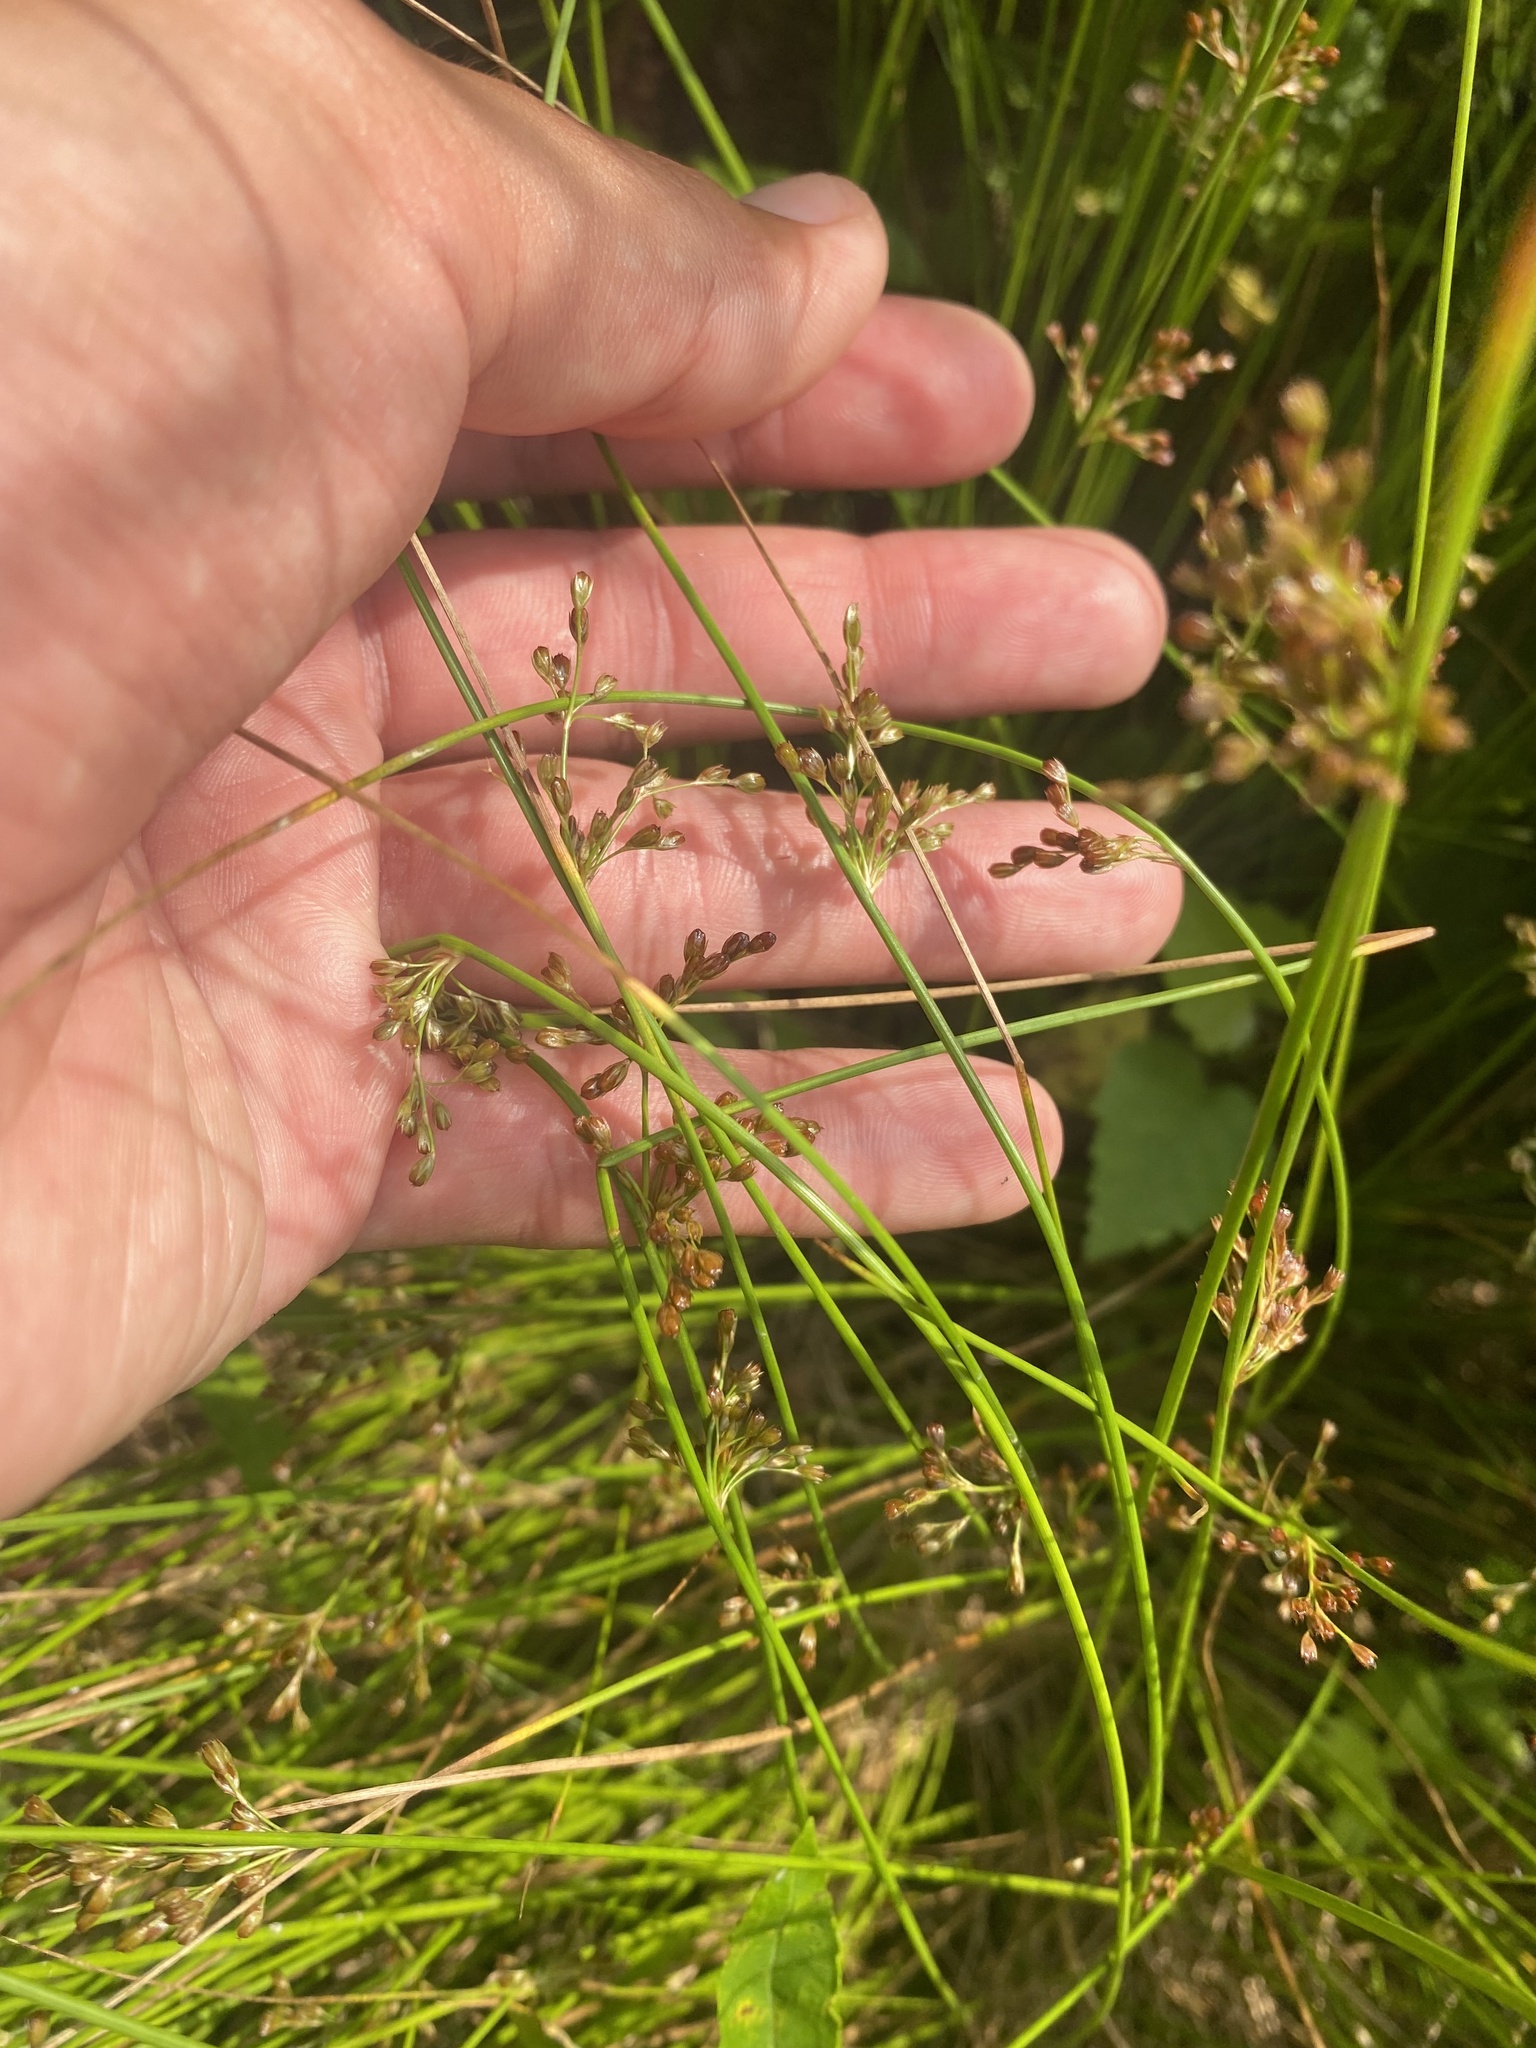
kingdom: Plantae
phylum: Tracheophyta
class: Liliopsida
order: Poales
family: Juncaceae
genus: Juncus
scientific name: Juncus decipiens
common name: Lamp rush
